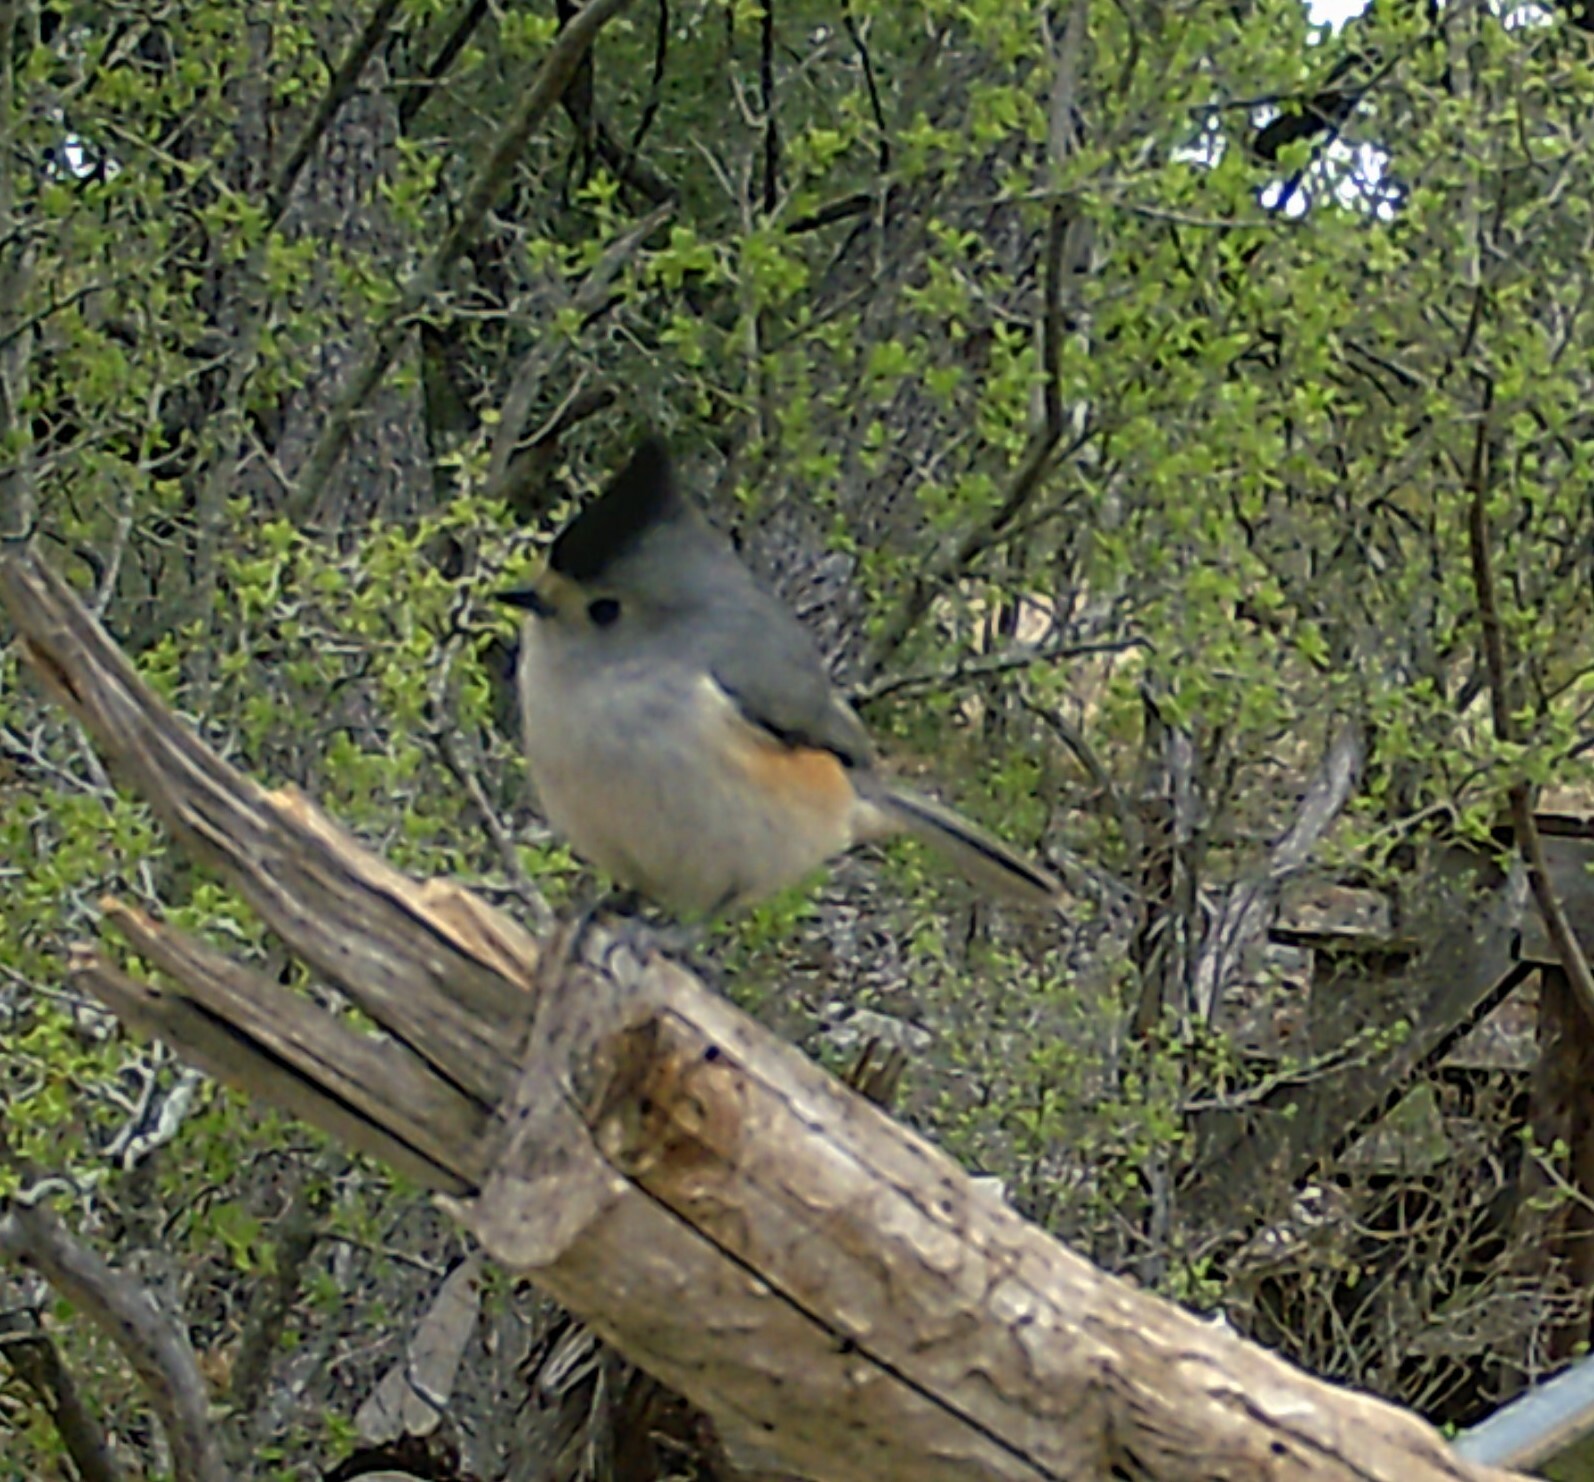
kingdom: Animalia
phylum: Chordata
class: Aves
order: Passeriformes
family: Paridae
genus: Baeolophus
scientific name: Baeolophus atricristatus
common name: Black-crested titmouse
